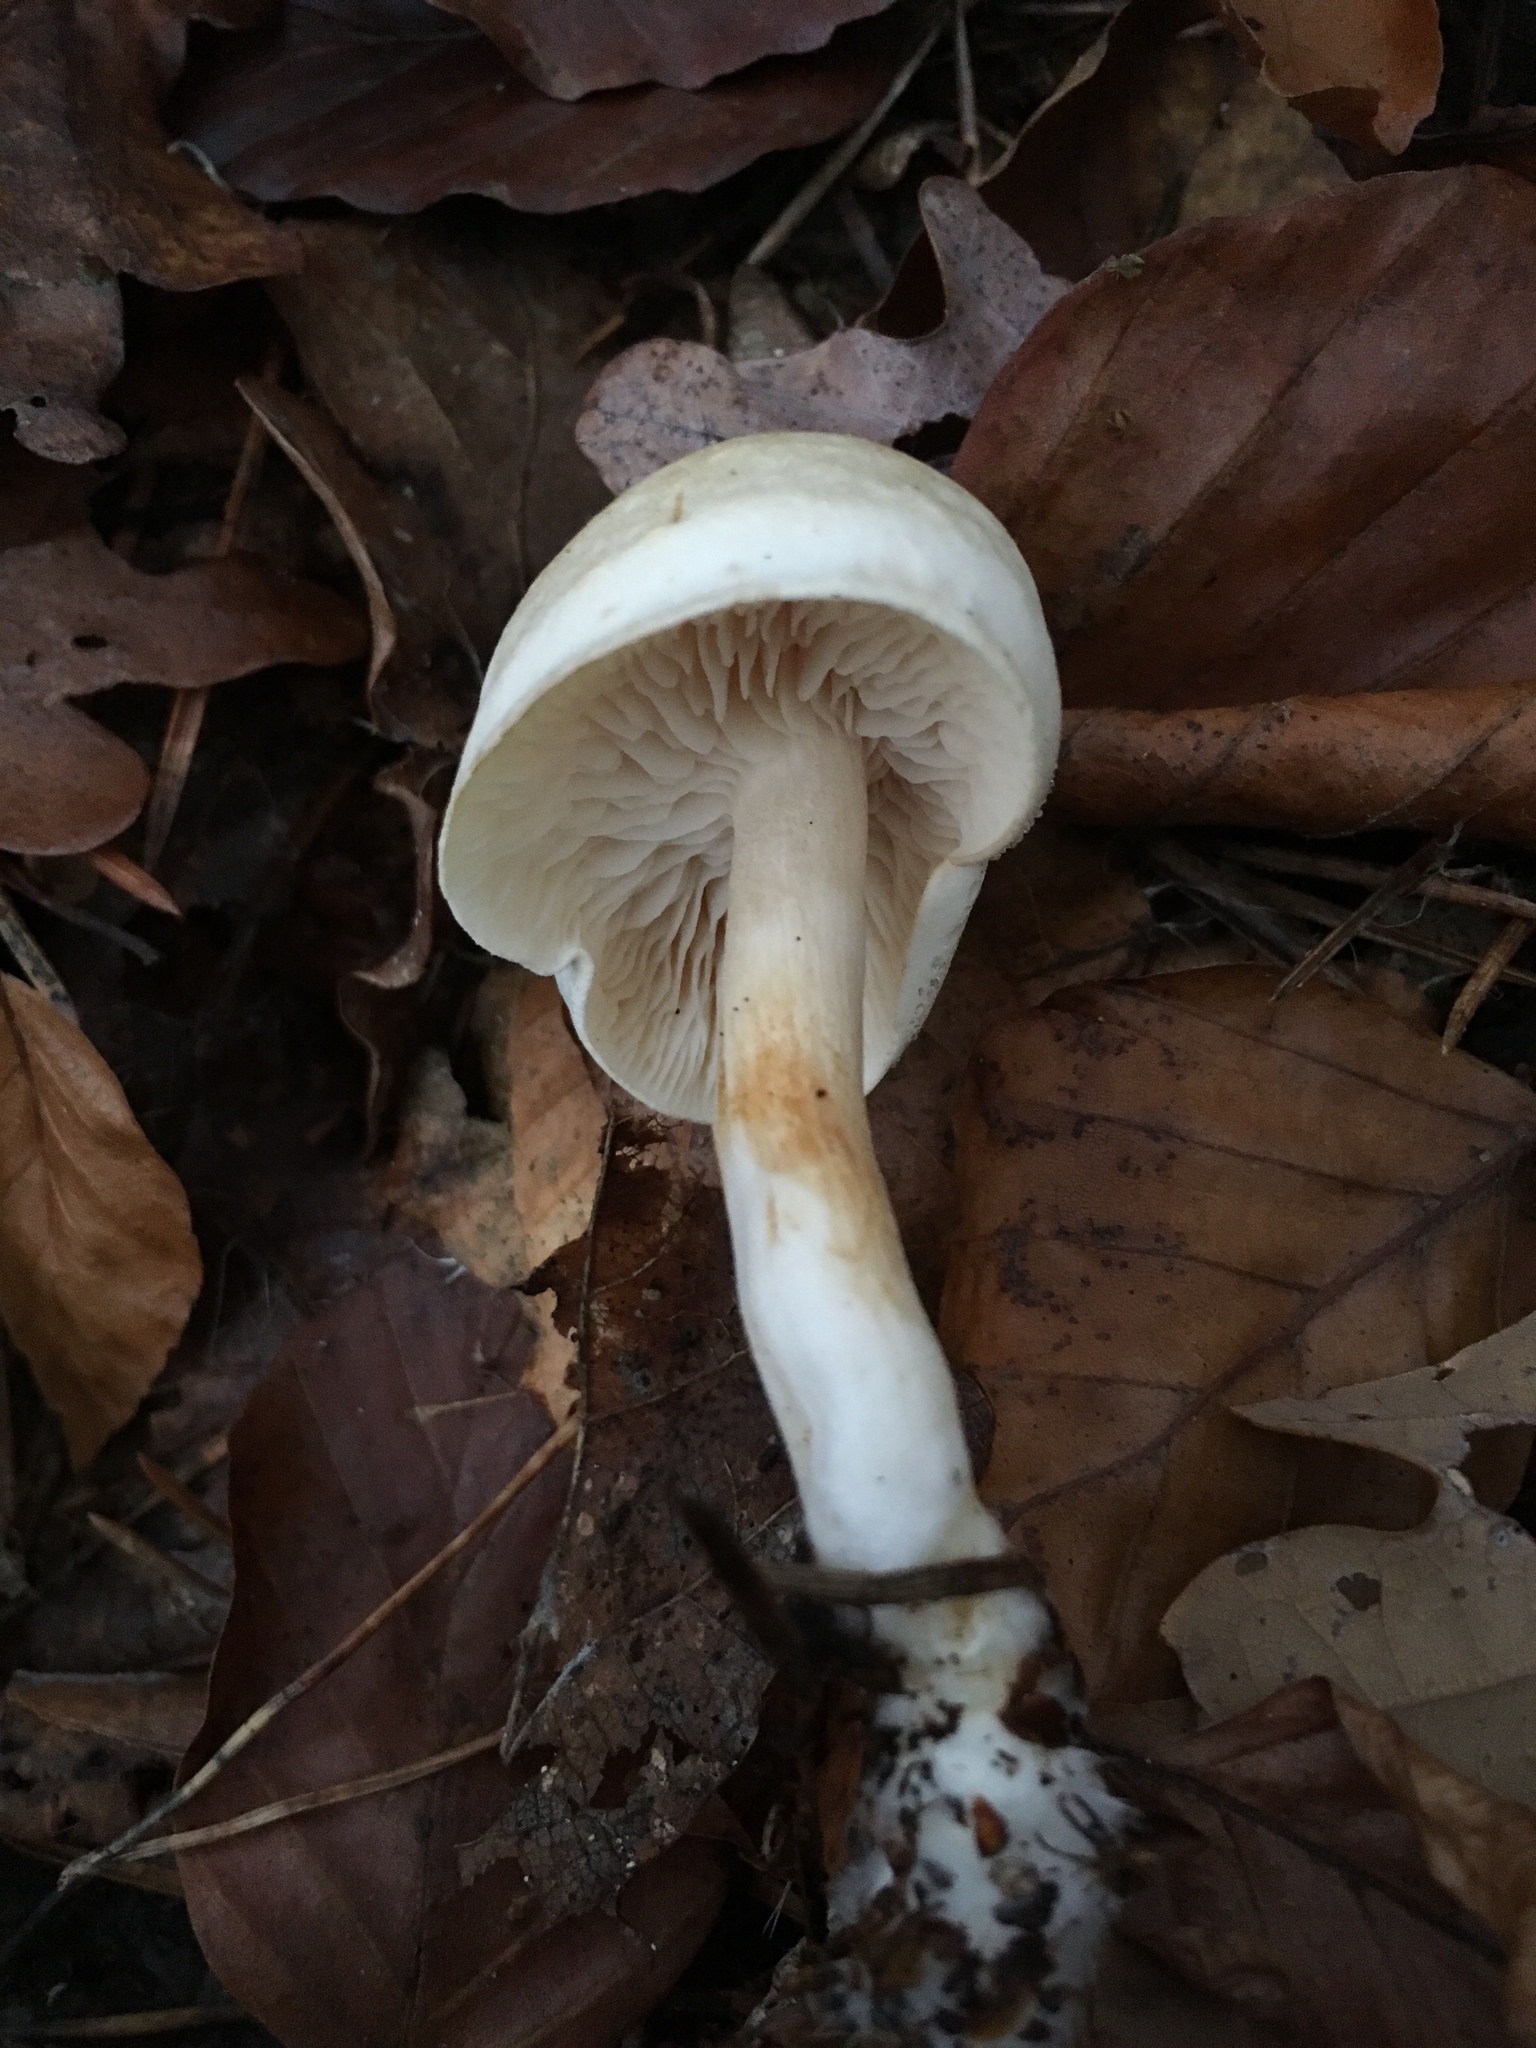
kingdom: Fungi
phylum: Basidiomycota
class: Agaricomycetes
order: Agaricales
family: Tricholomataceae
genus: Tricholoma
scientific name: Tricholoma inamoenum
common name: Gassy knight
